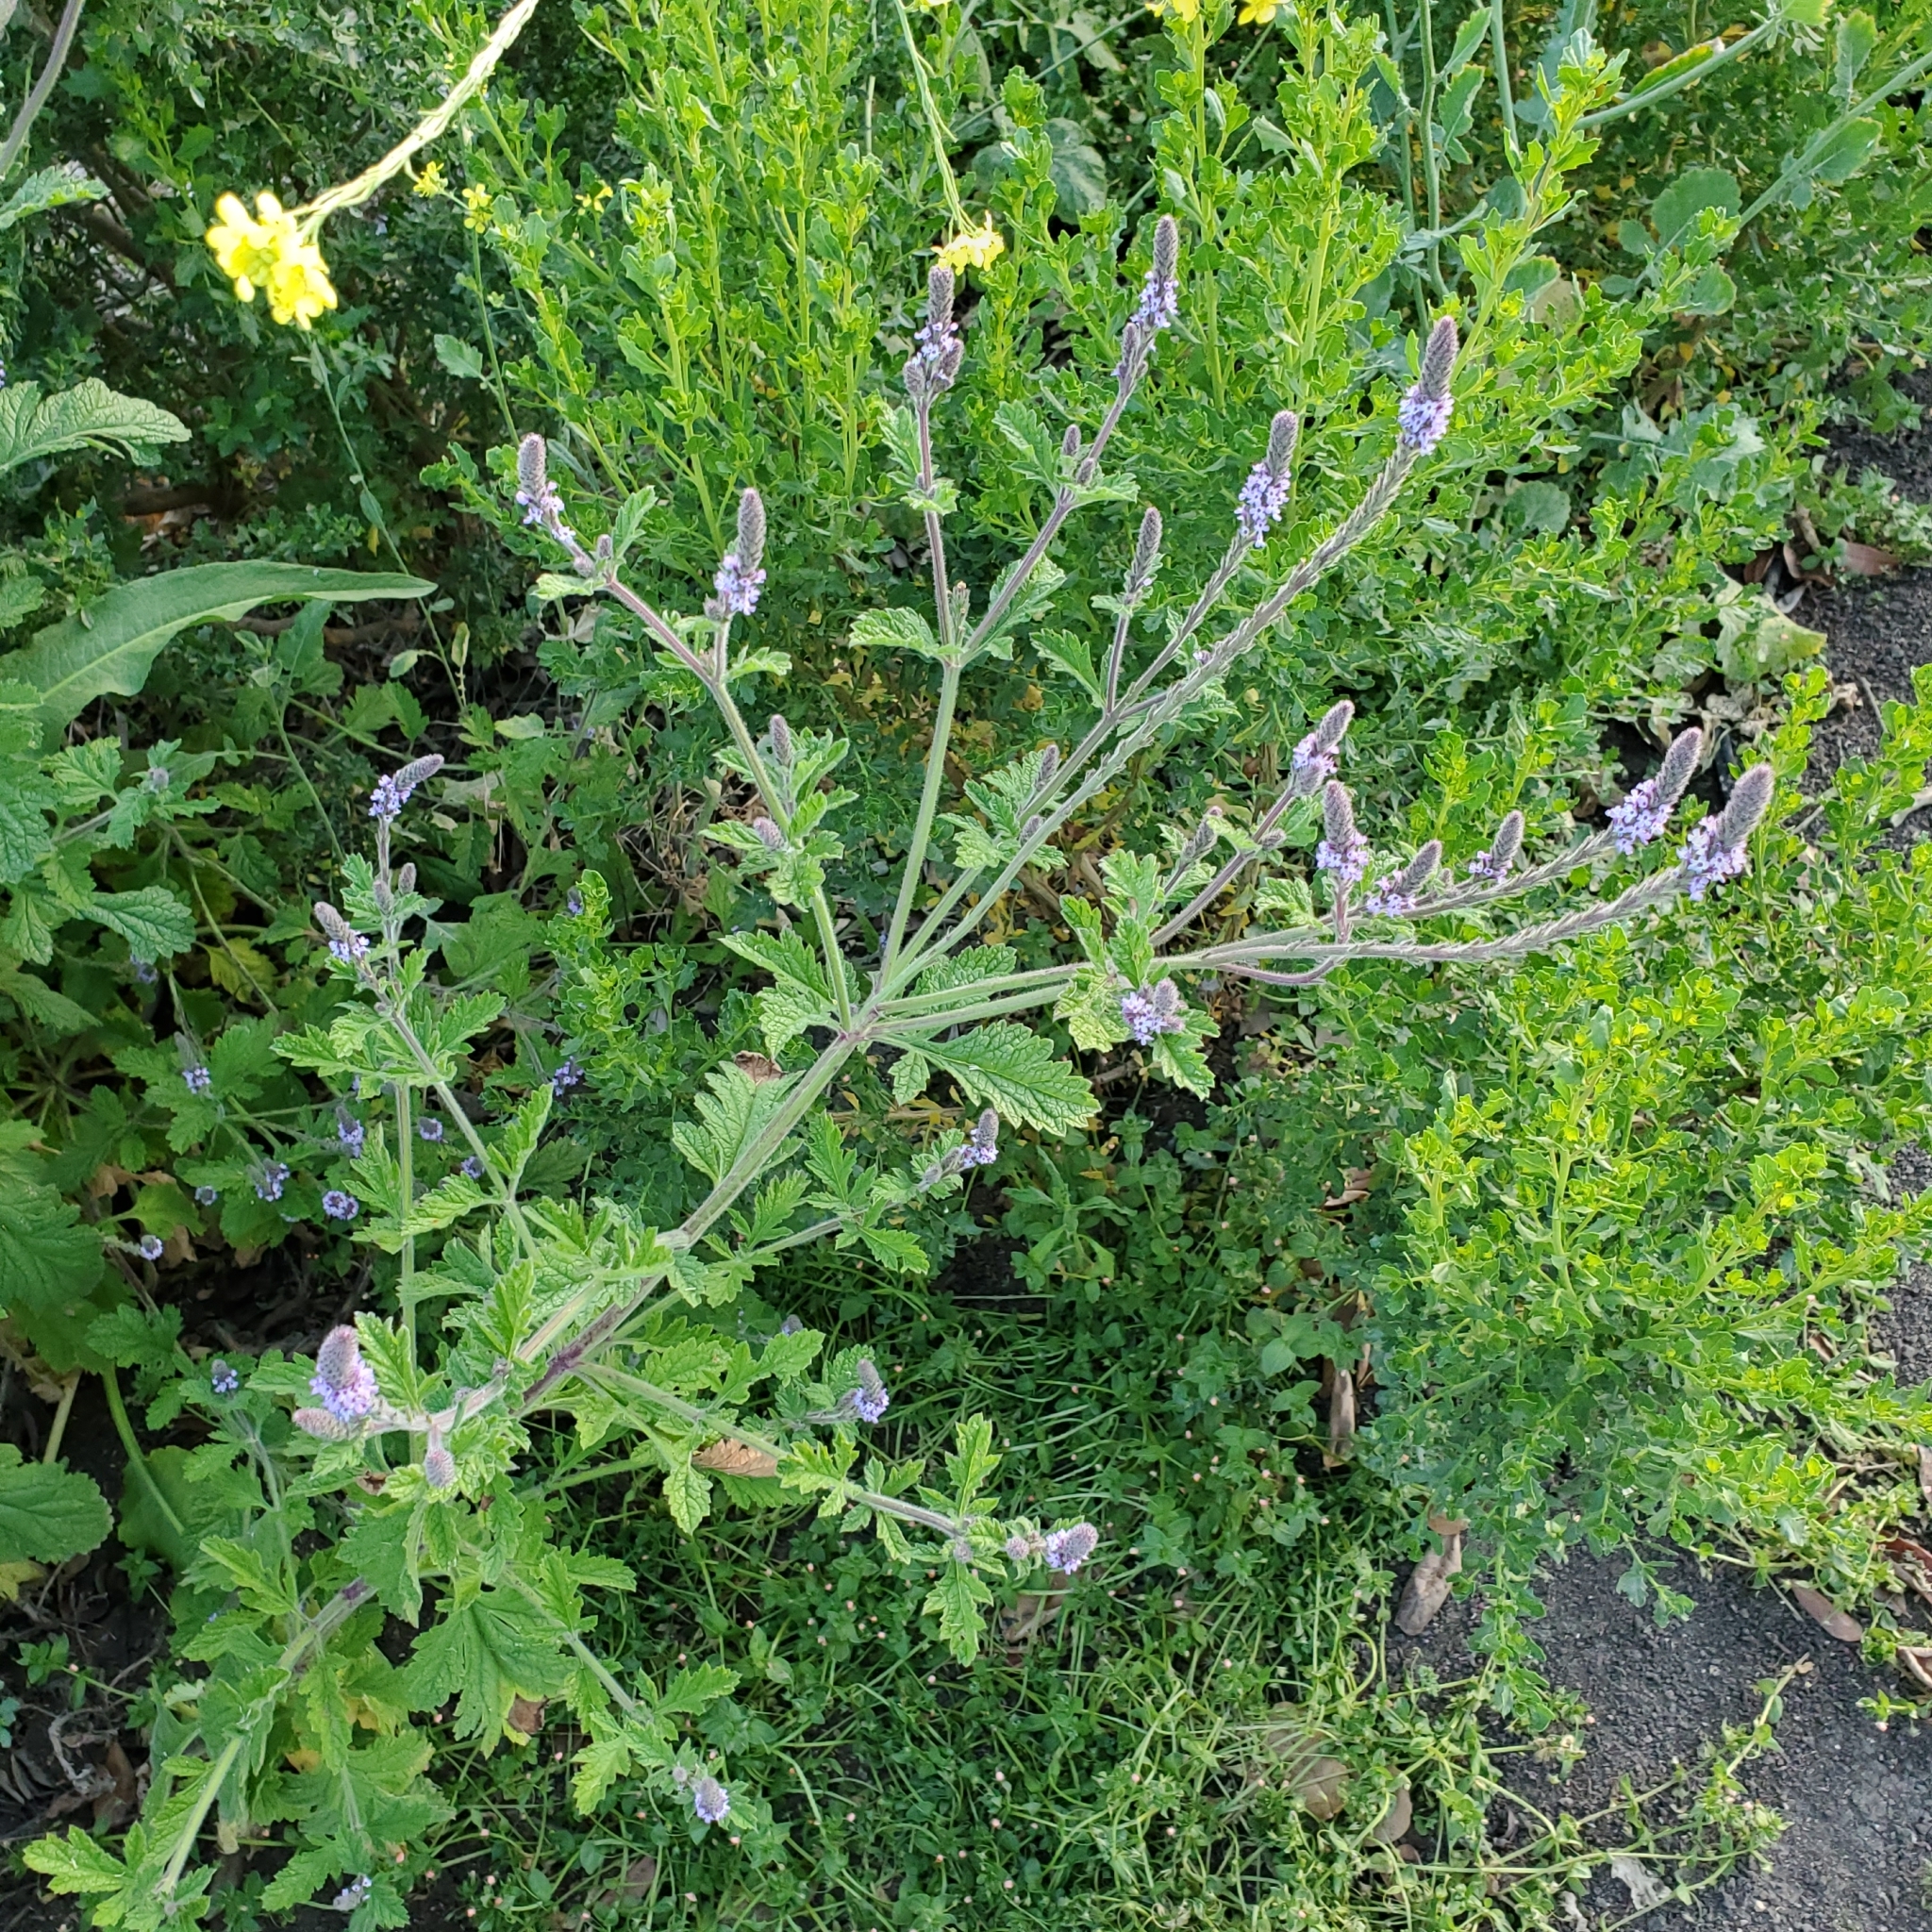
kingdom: Plantae
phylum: Tracheophyta
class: Magnoliopsida
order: Lamiales
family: Verbenaceae
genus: Verbena
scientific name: Verbena lasiostachys
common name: Vervain
